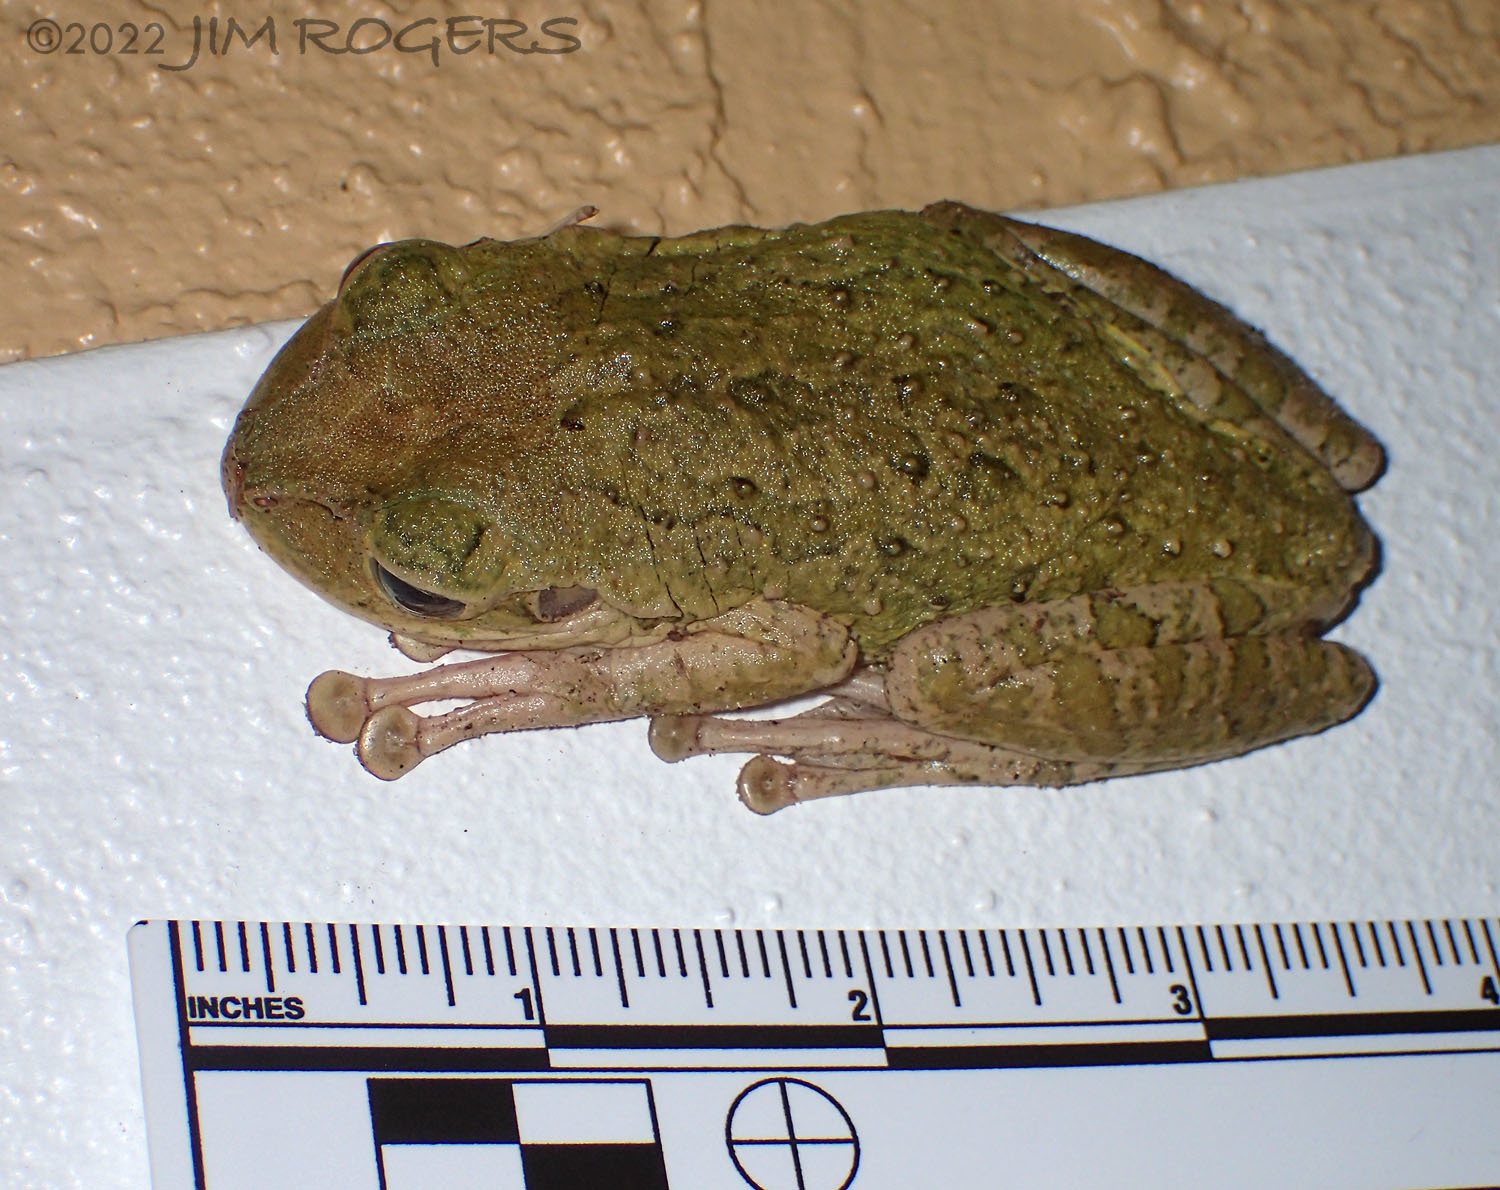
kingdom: Animalia
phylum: Chordata
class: Amphibia
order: Anura
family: Hylidae
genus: Osteopilus
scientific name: Osteopilus septentrionalis
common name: Cuban treefrog
